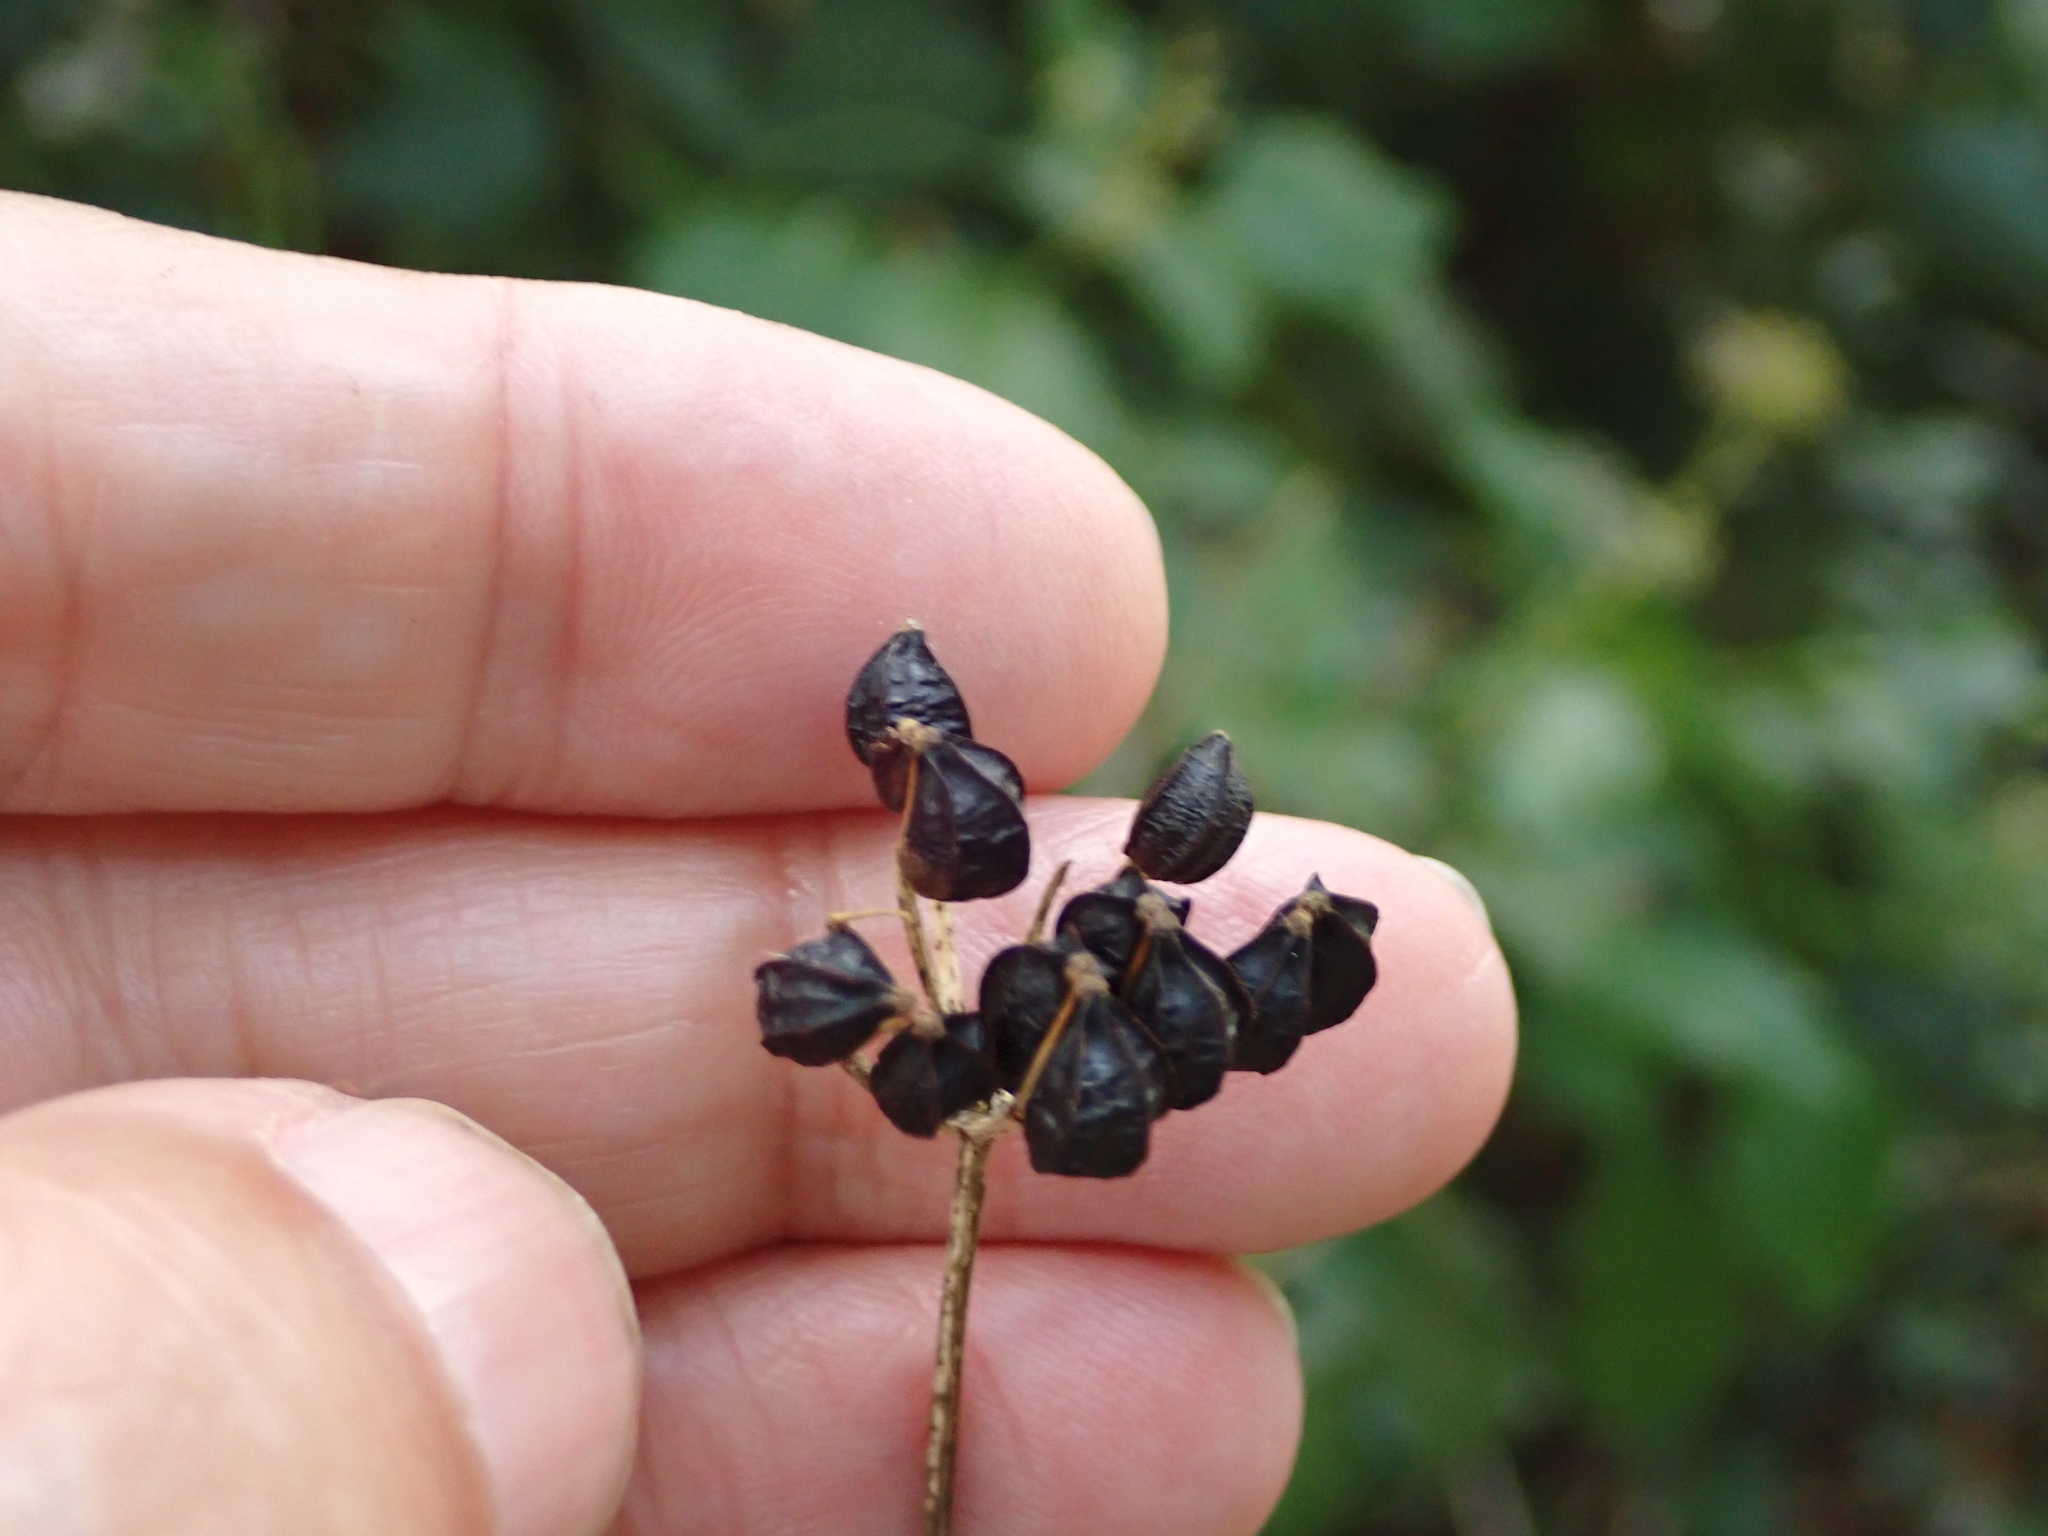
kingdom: Plantae
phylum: Tracheophyta
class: Magnoliopsida
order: Apiales
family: Apiaceae
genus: Smyrnium
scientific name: Smyrnium olusatrum
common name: Alexanders
